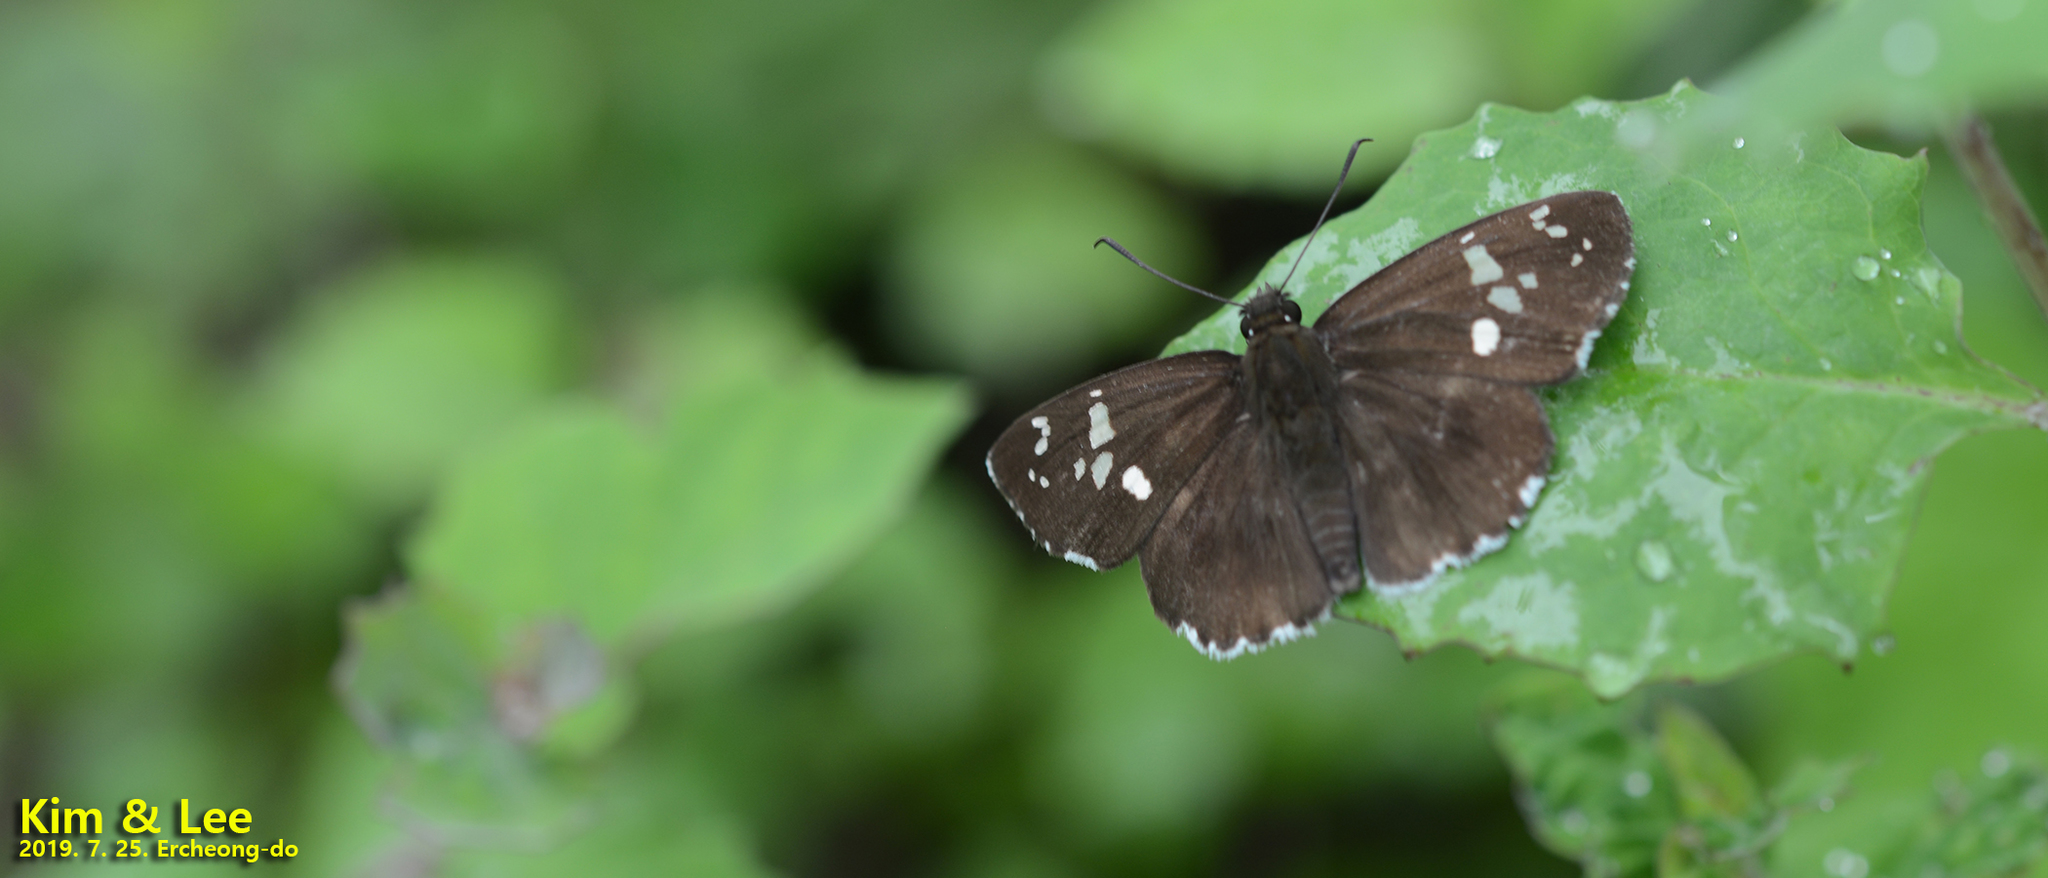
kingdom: Animalia
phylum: Arthropoda
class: Insecta
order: Lepidoptera
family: Hesperiidae
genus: Daimio
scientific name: Daimio tethys
